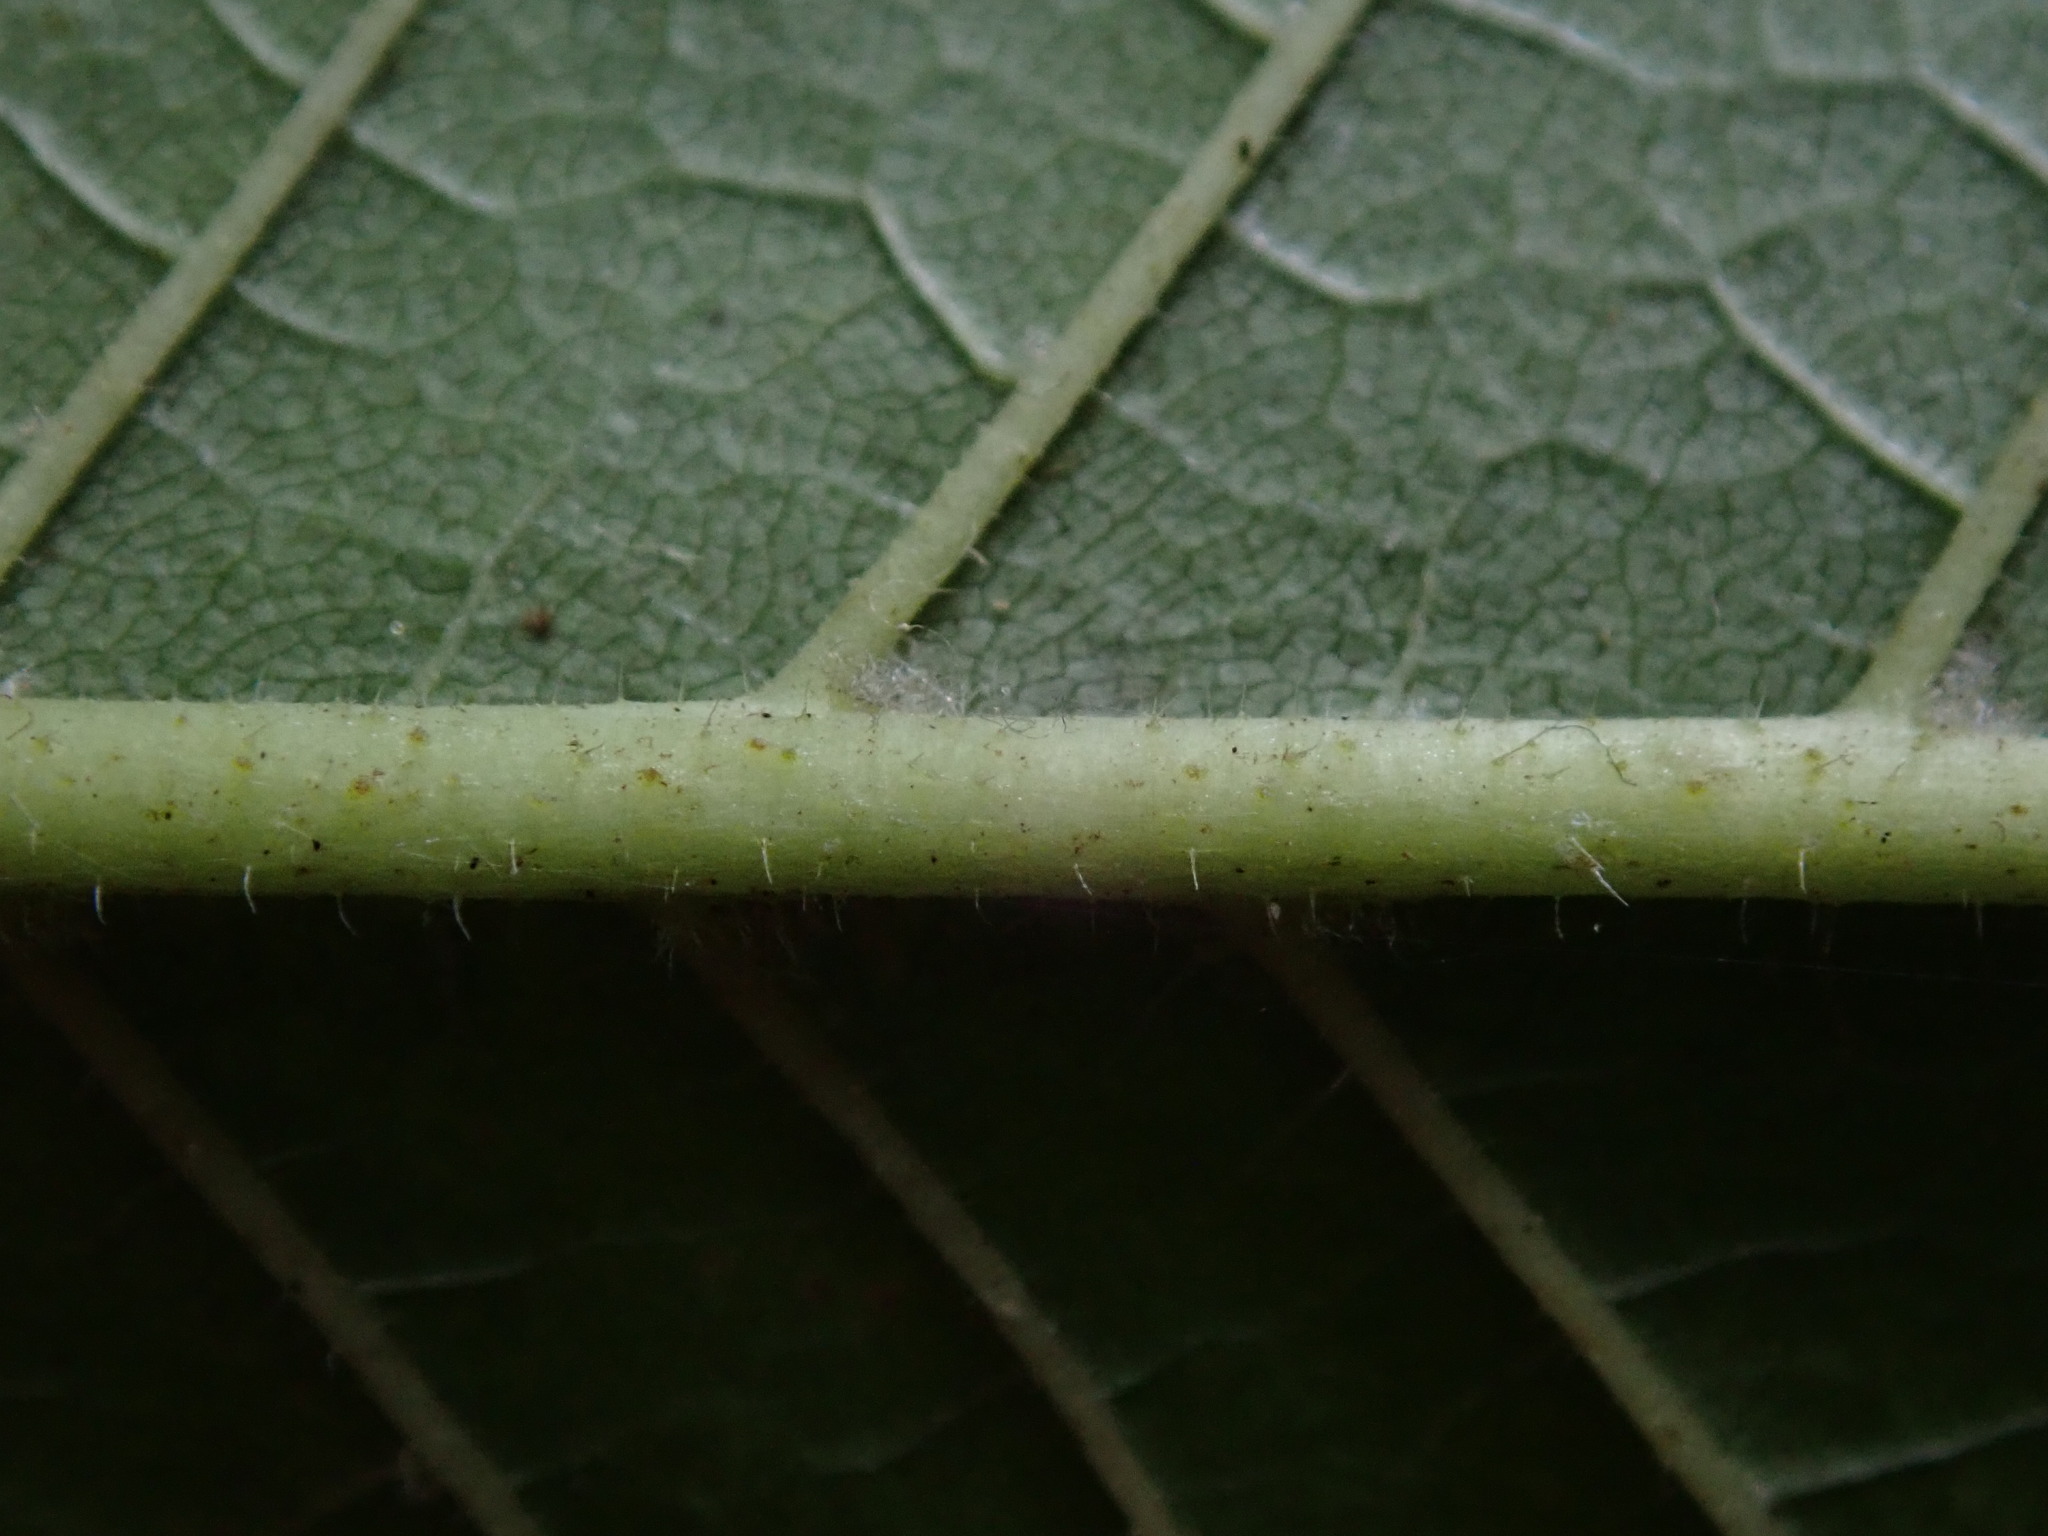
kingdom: Plantae
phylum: Tracheophyta
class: Magnoliopsida
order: Rosales
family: Ulmaceae
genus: Ulmus
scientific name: Ulmus glabra
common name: Wych elm
